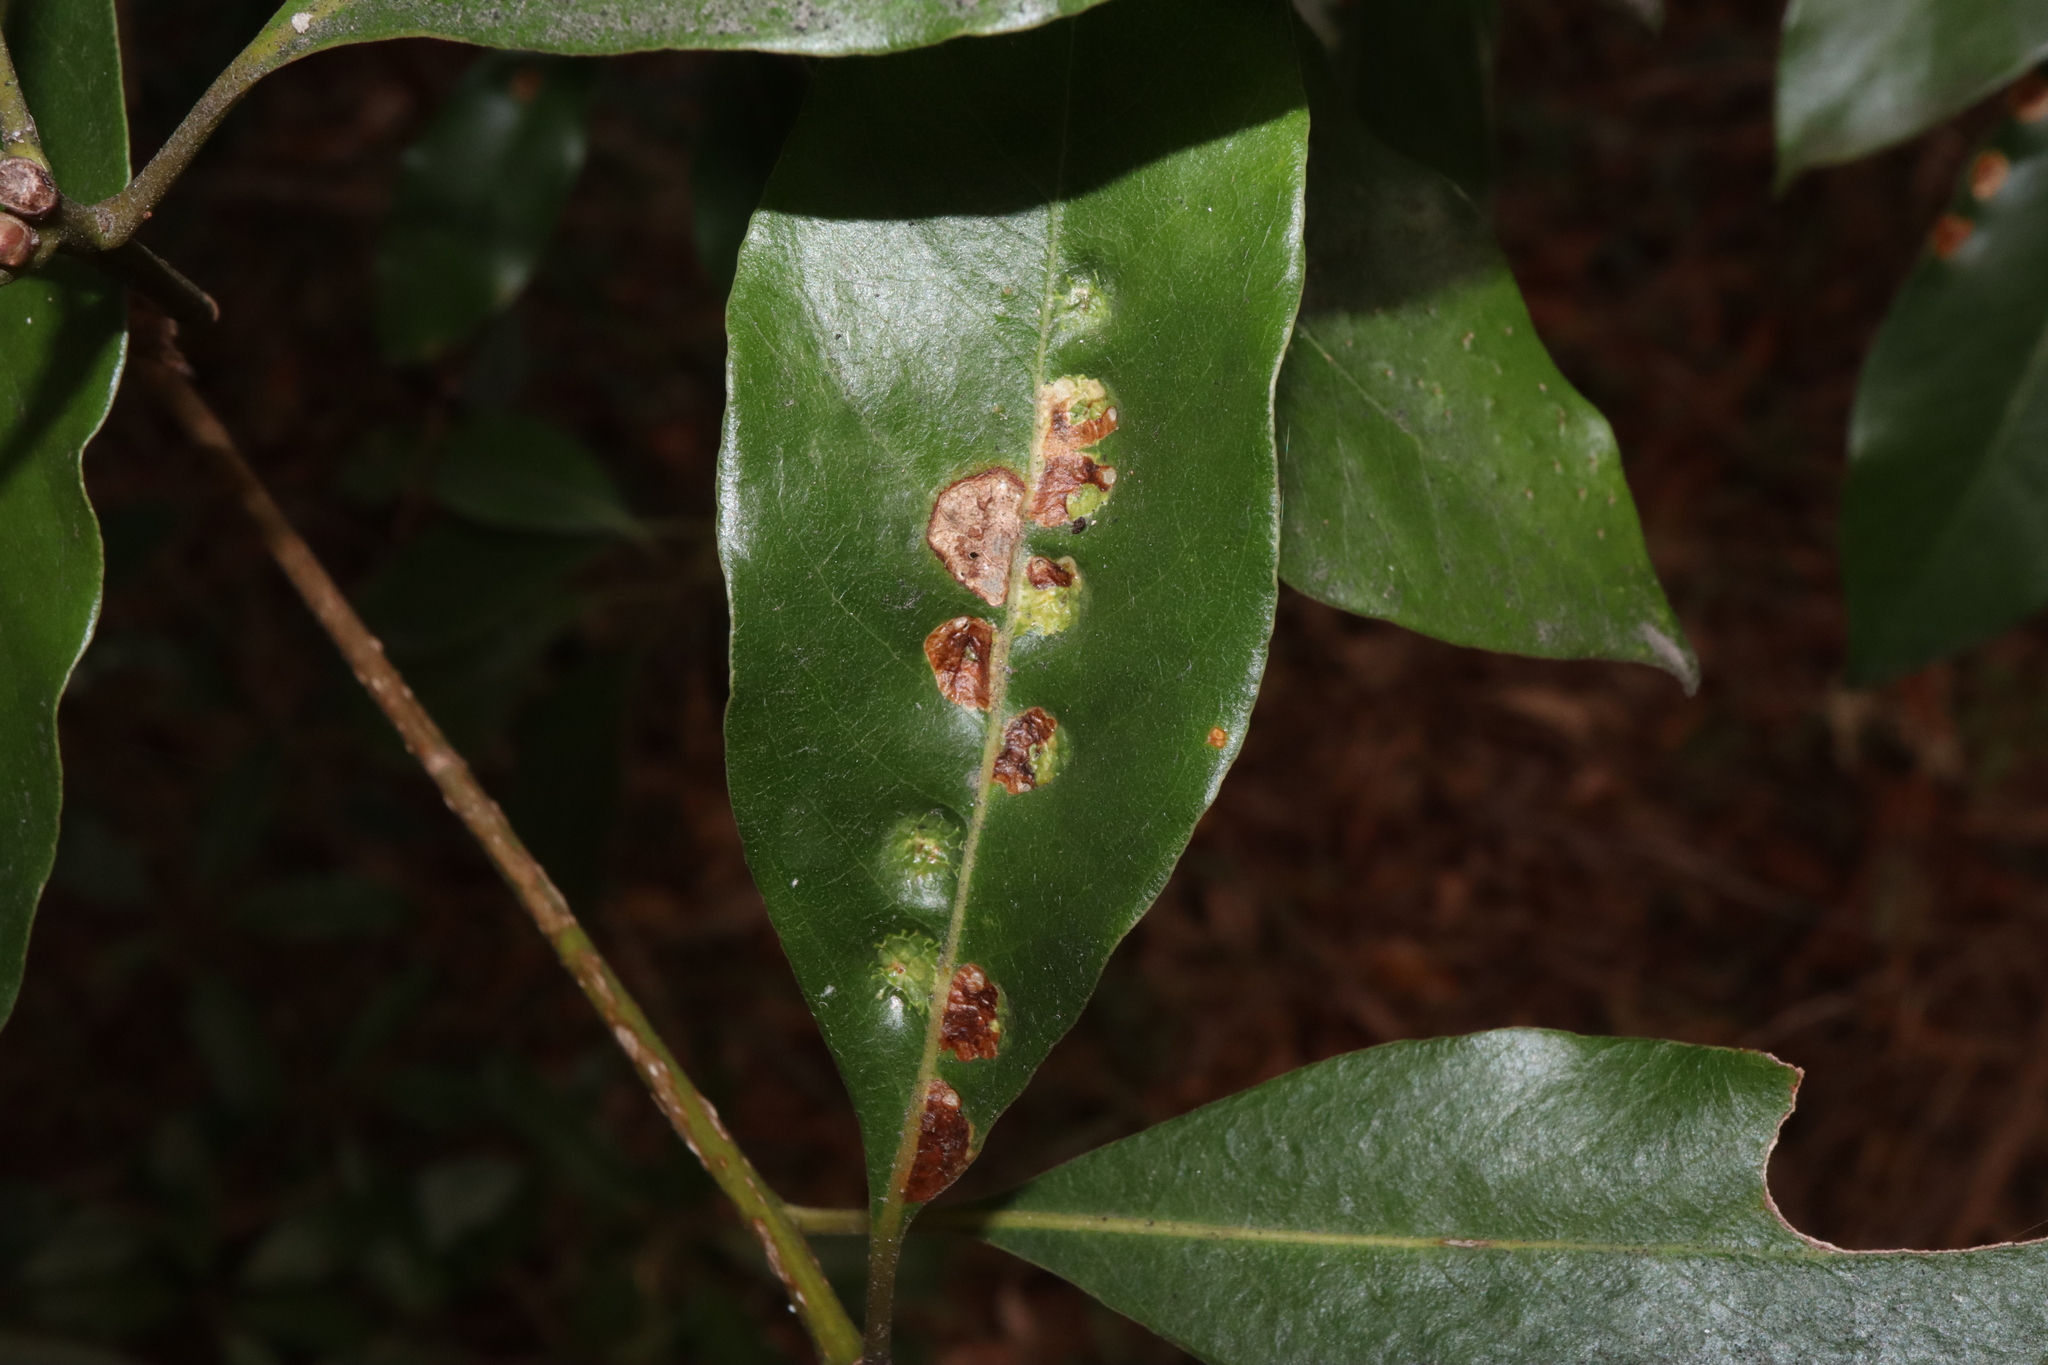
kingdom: Animalia
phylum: Arthropoda
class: Insecta
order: Diptera
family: Agromyzidae
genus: Phytoliriomyza
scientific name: Phytoliriomyza pittosporophylli
